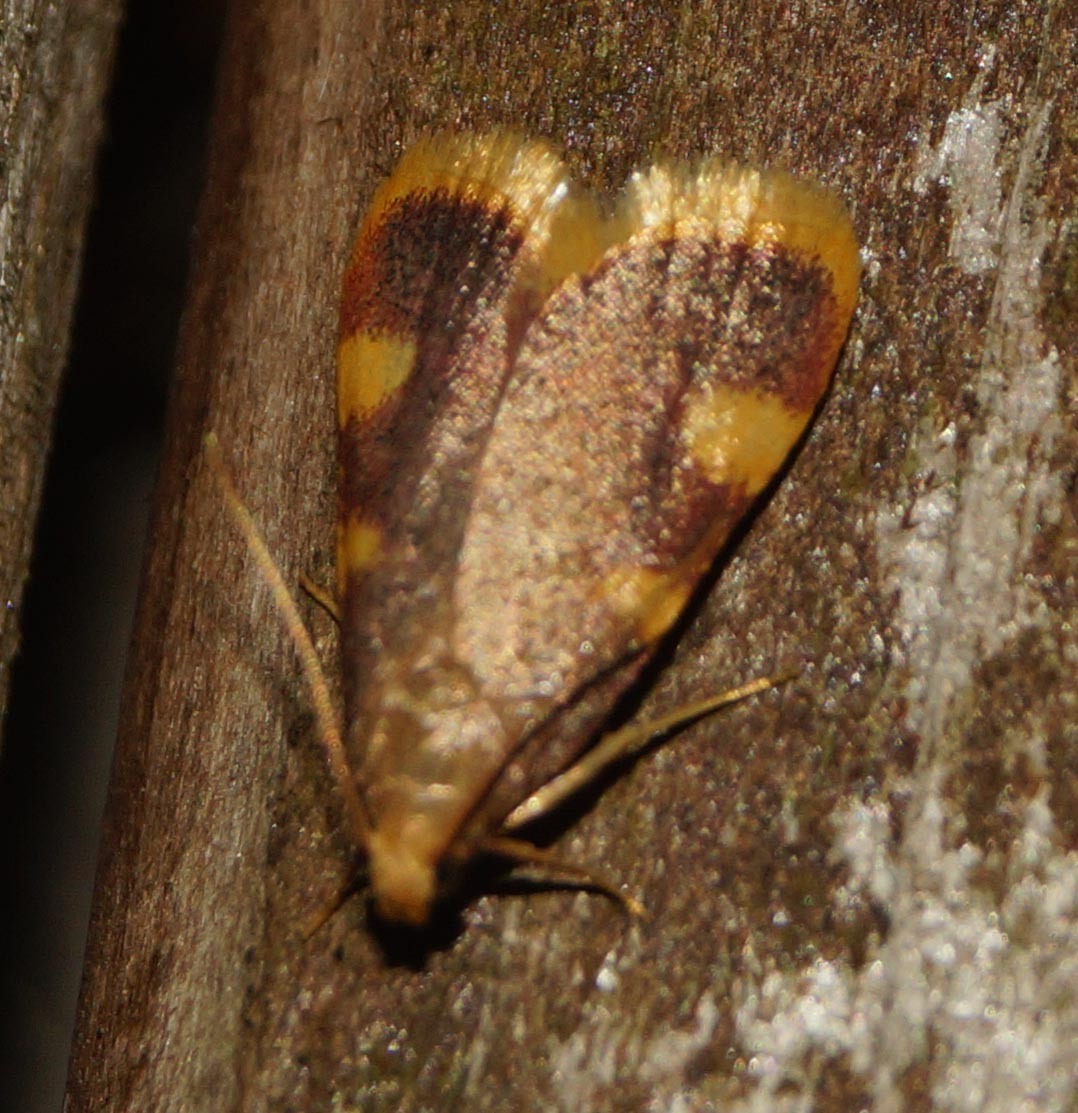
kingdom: Animalia
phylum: Arthropoda
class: Insecta
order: Lepidoptera
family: Pyralidae
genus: Hypsopygia
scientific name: Hypsopygia costalis
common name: Gold triangle
